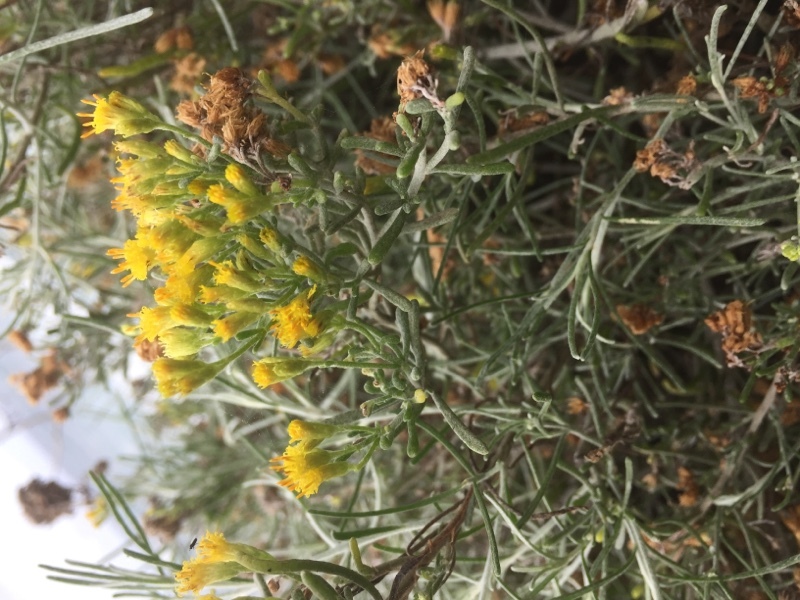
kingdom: Plantae
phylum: Tracheophyta
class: Magnoliopsida
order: Asterales
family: Asteraceae
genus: Schizogyne
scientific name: Schizogyne sericea
